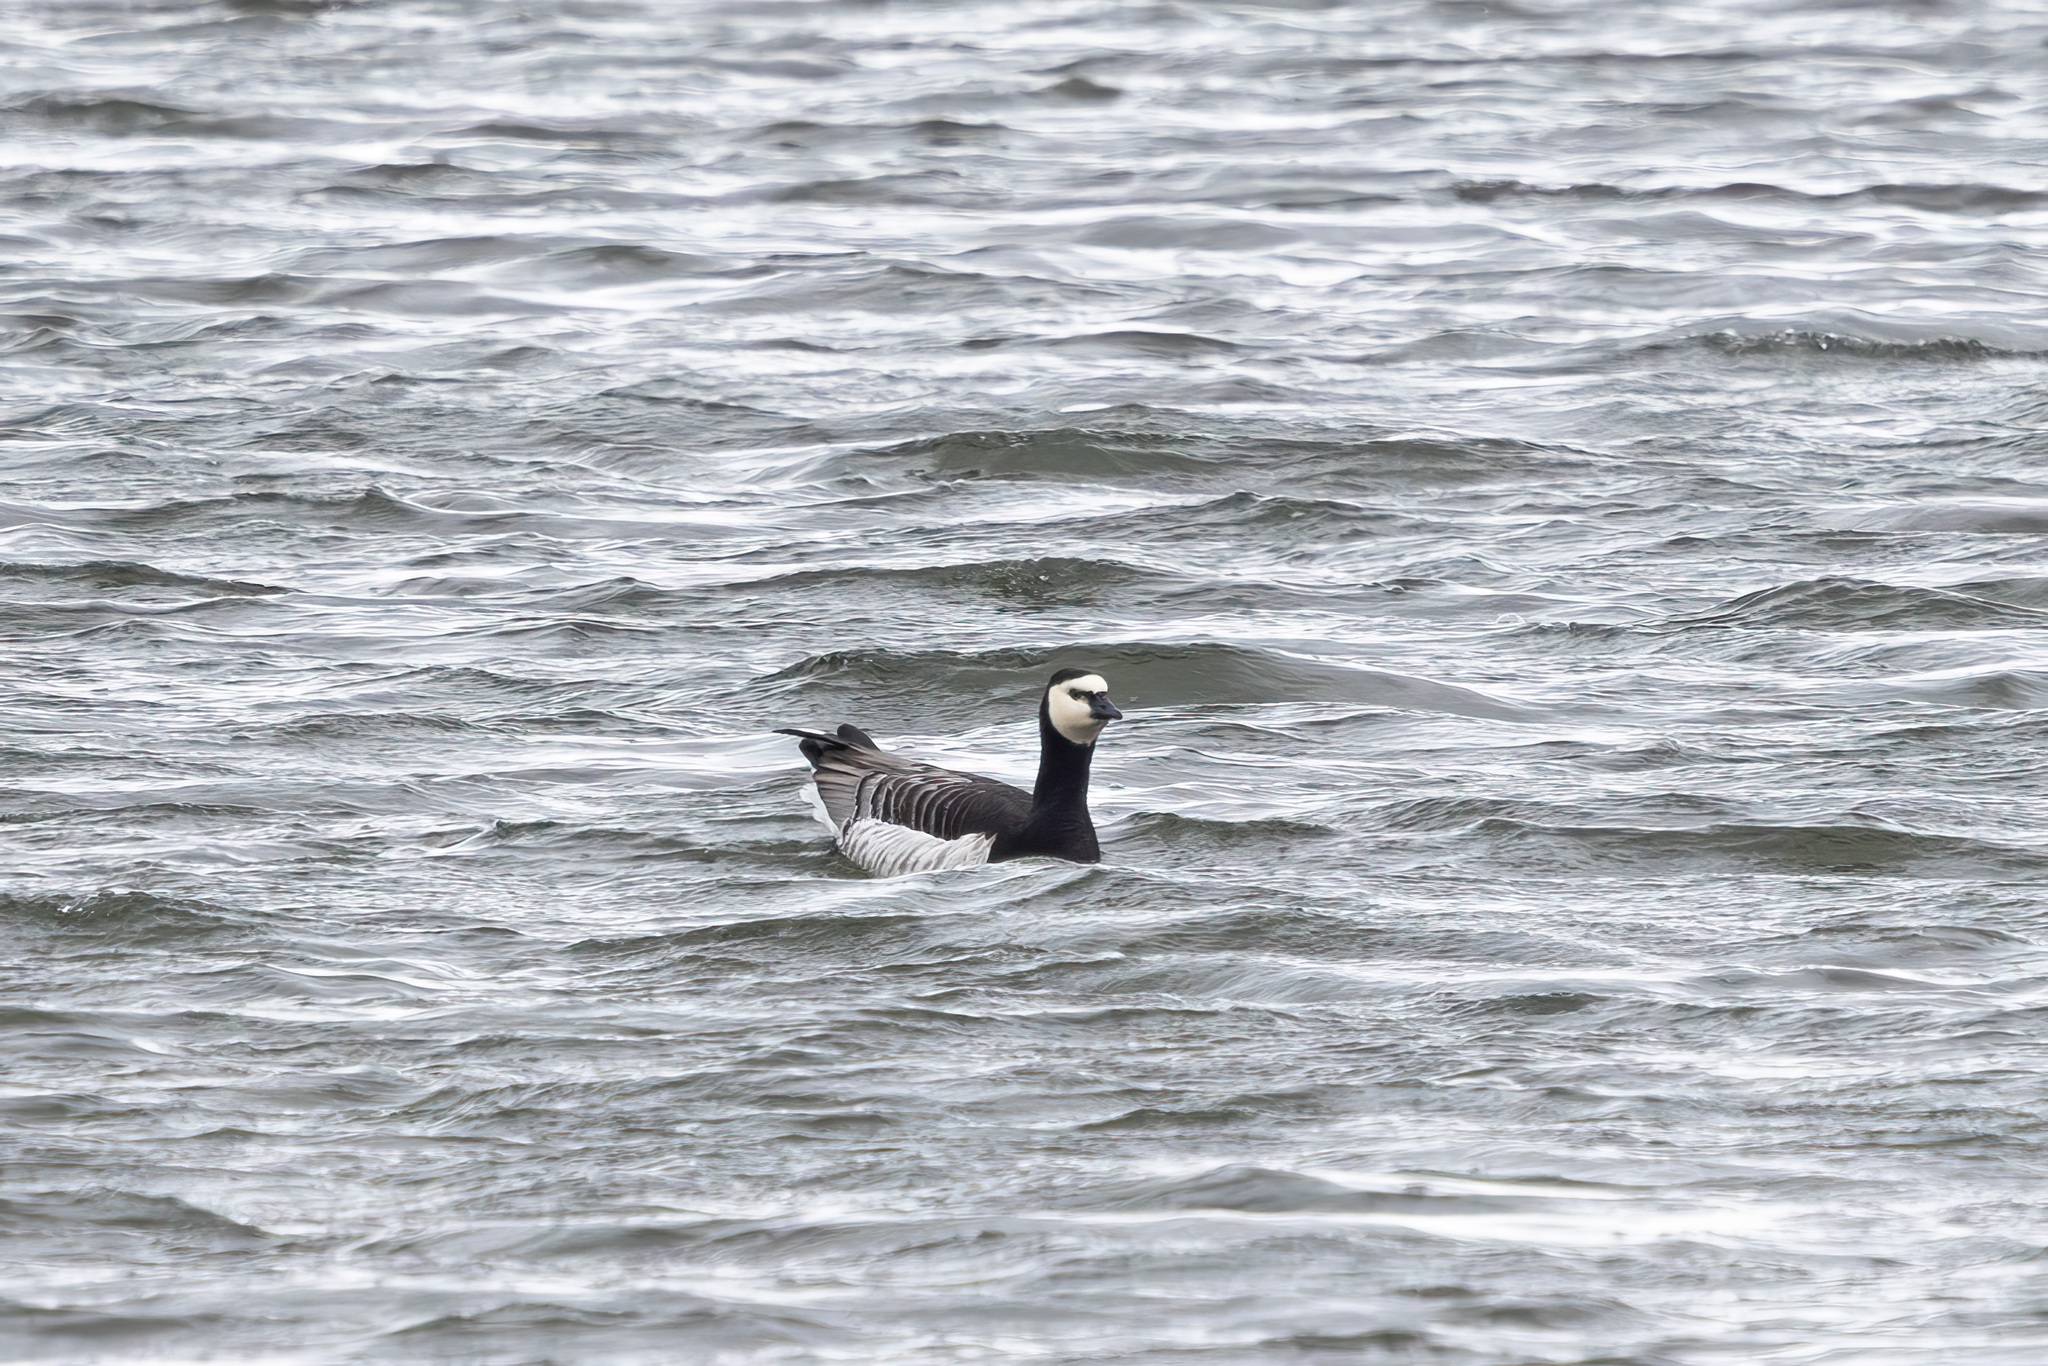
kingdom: Animalia
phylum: Chordata
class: Aves
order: Anseriformes
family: Anatidae
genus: Branta
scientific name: Branta leucopsis
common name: Barnacle goose
